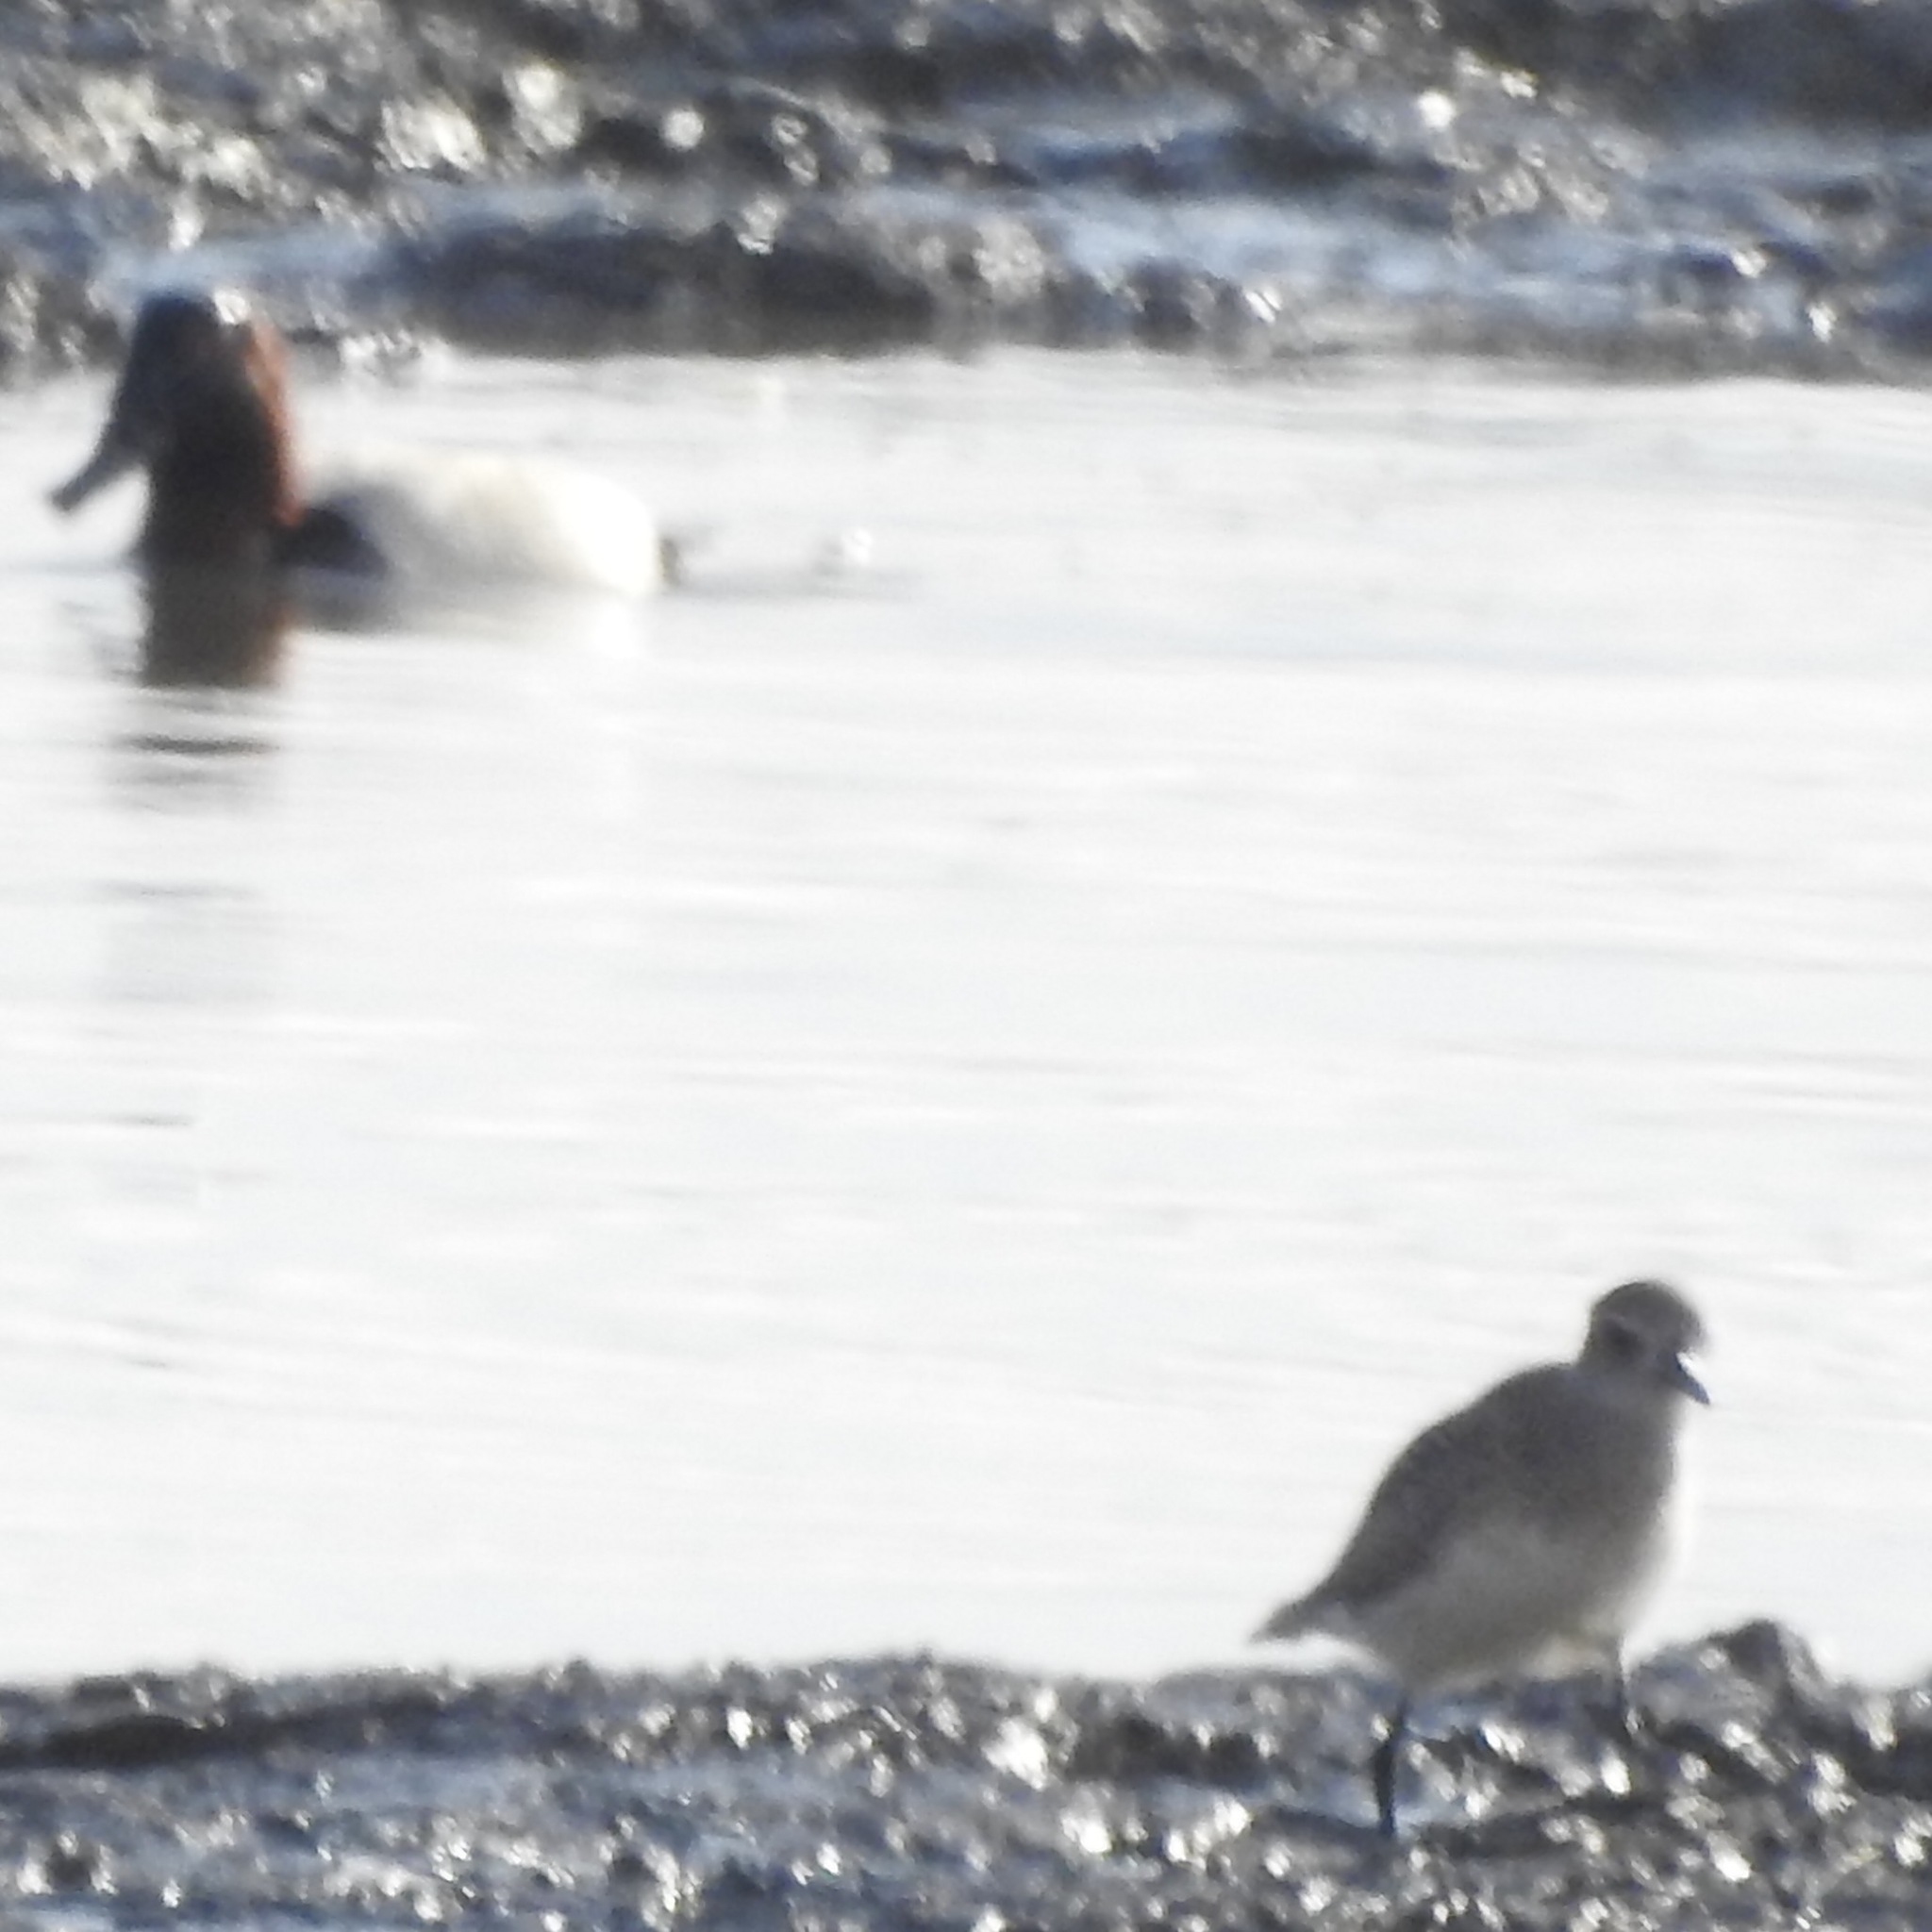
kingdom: Animalia
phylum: Chordata
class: Aves
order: Charadriiformes
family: Charadriidae
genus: Pluvialis
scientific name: Pluvialis squatarola
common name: Grey plover
